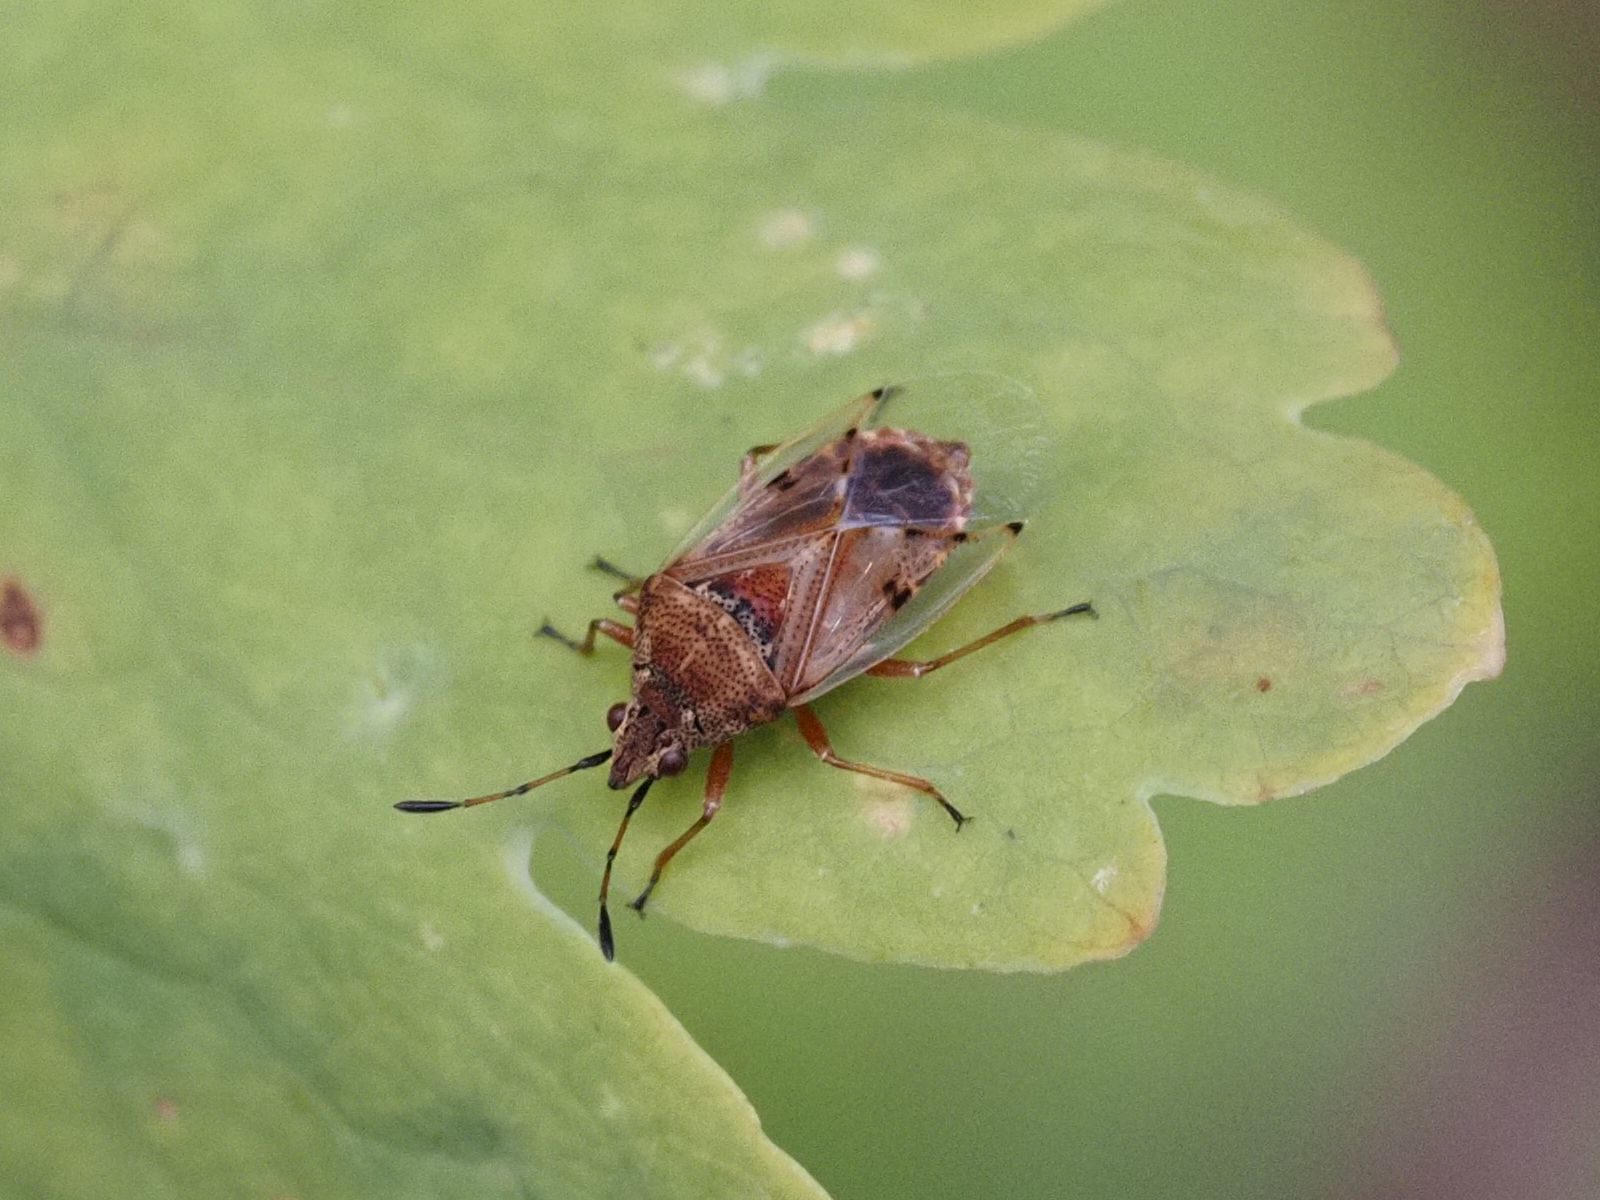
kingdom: Animalia
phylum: Arthropoda
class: Insecta
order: Hemiptera
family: Lygaeidae
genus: Kleidocerys
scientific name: Kleidocerys resedae
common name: Birch catkin bug
